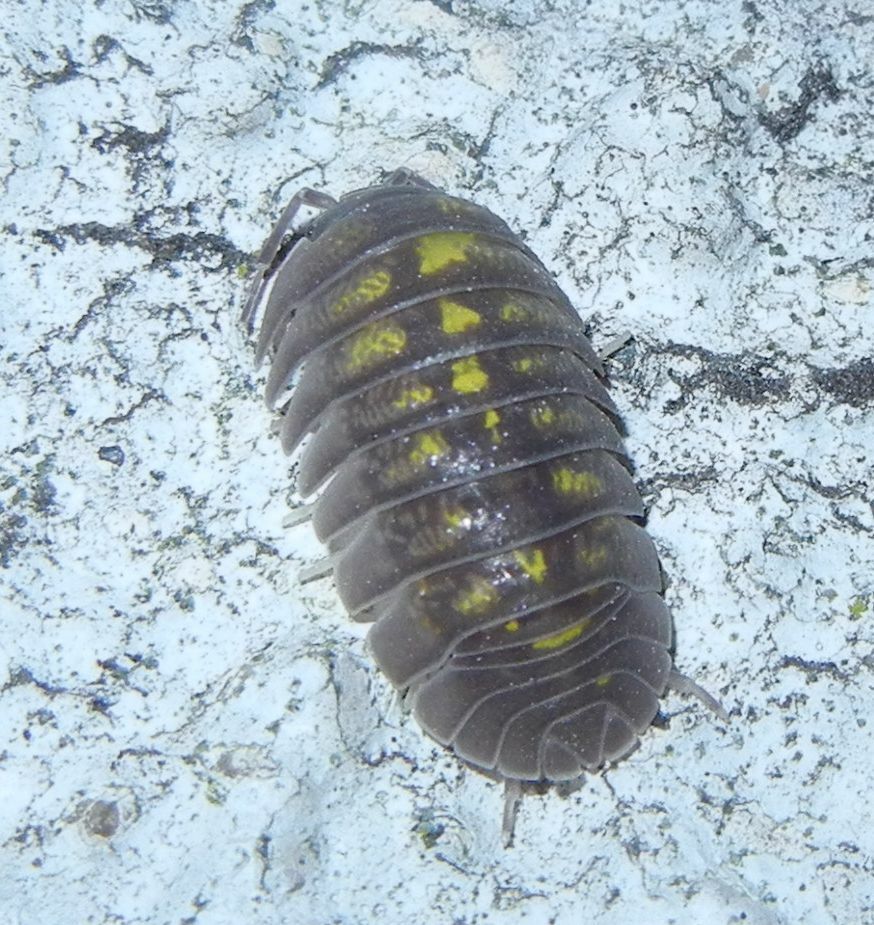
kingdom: Animalia
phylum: Arthropoda
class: Malacostraca
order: Isopoda
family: Armadillidiidae
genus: Armadillidium
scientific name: Armadillidium granulatum
